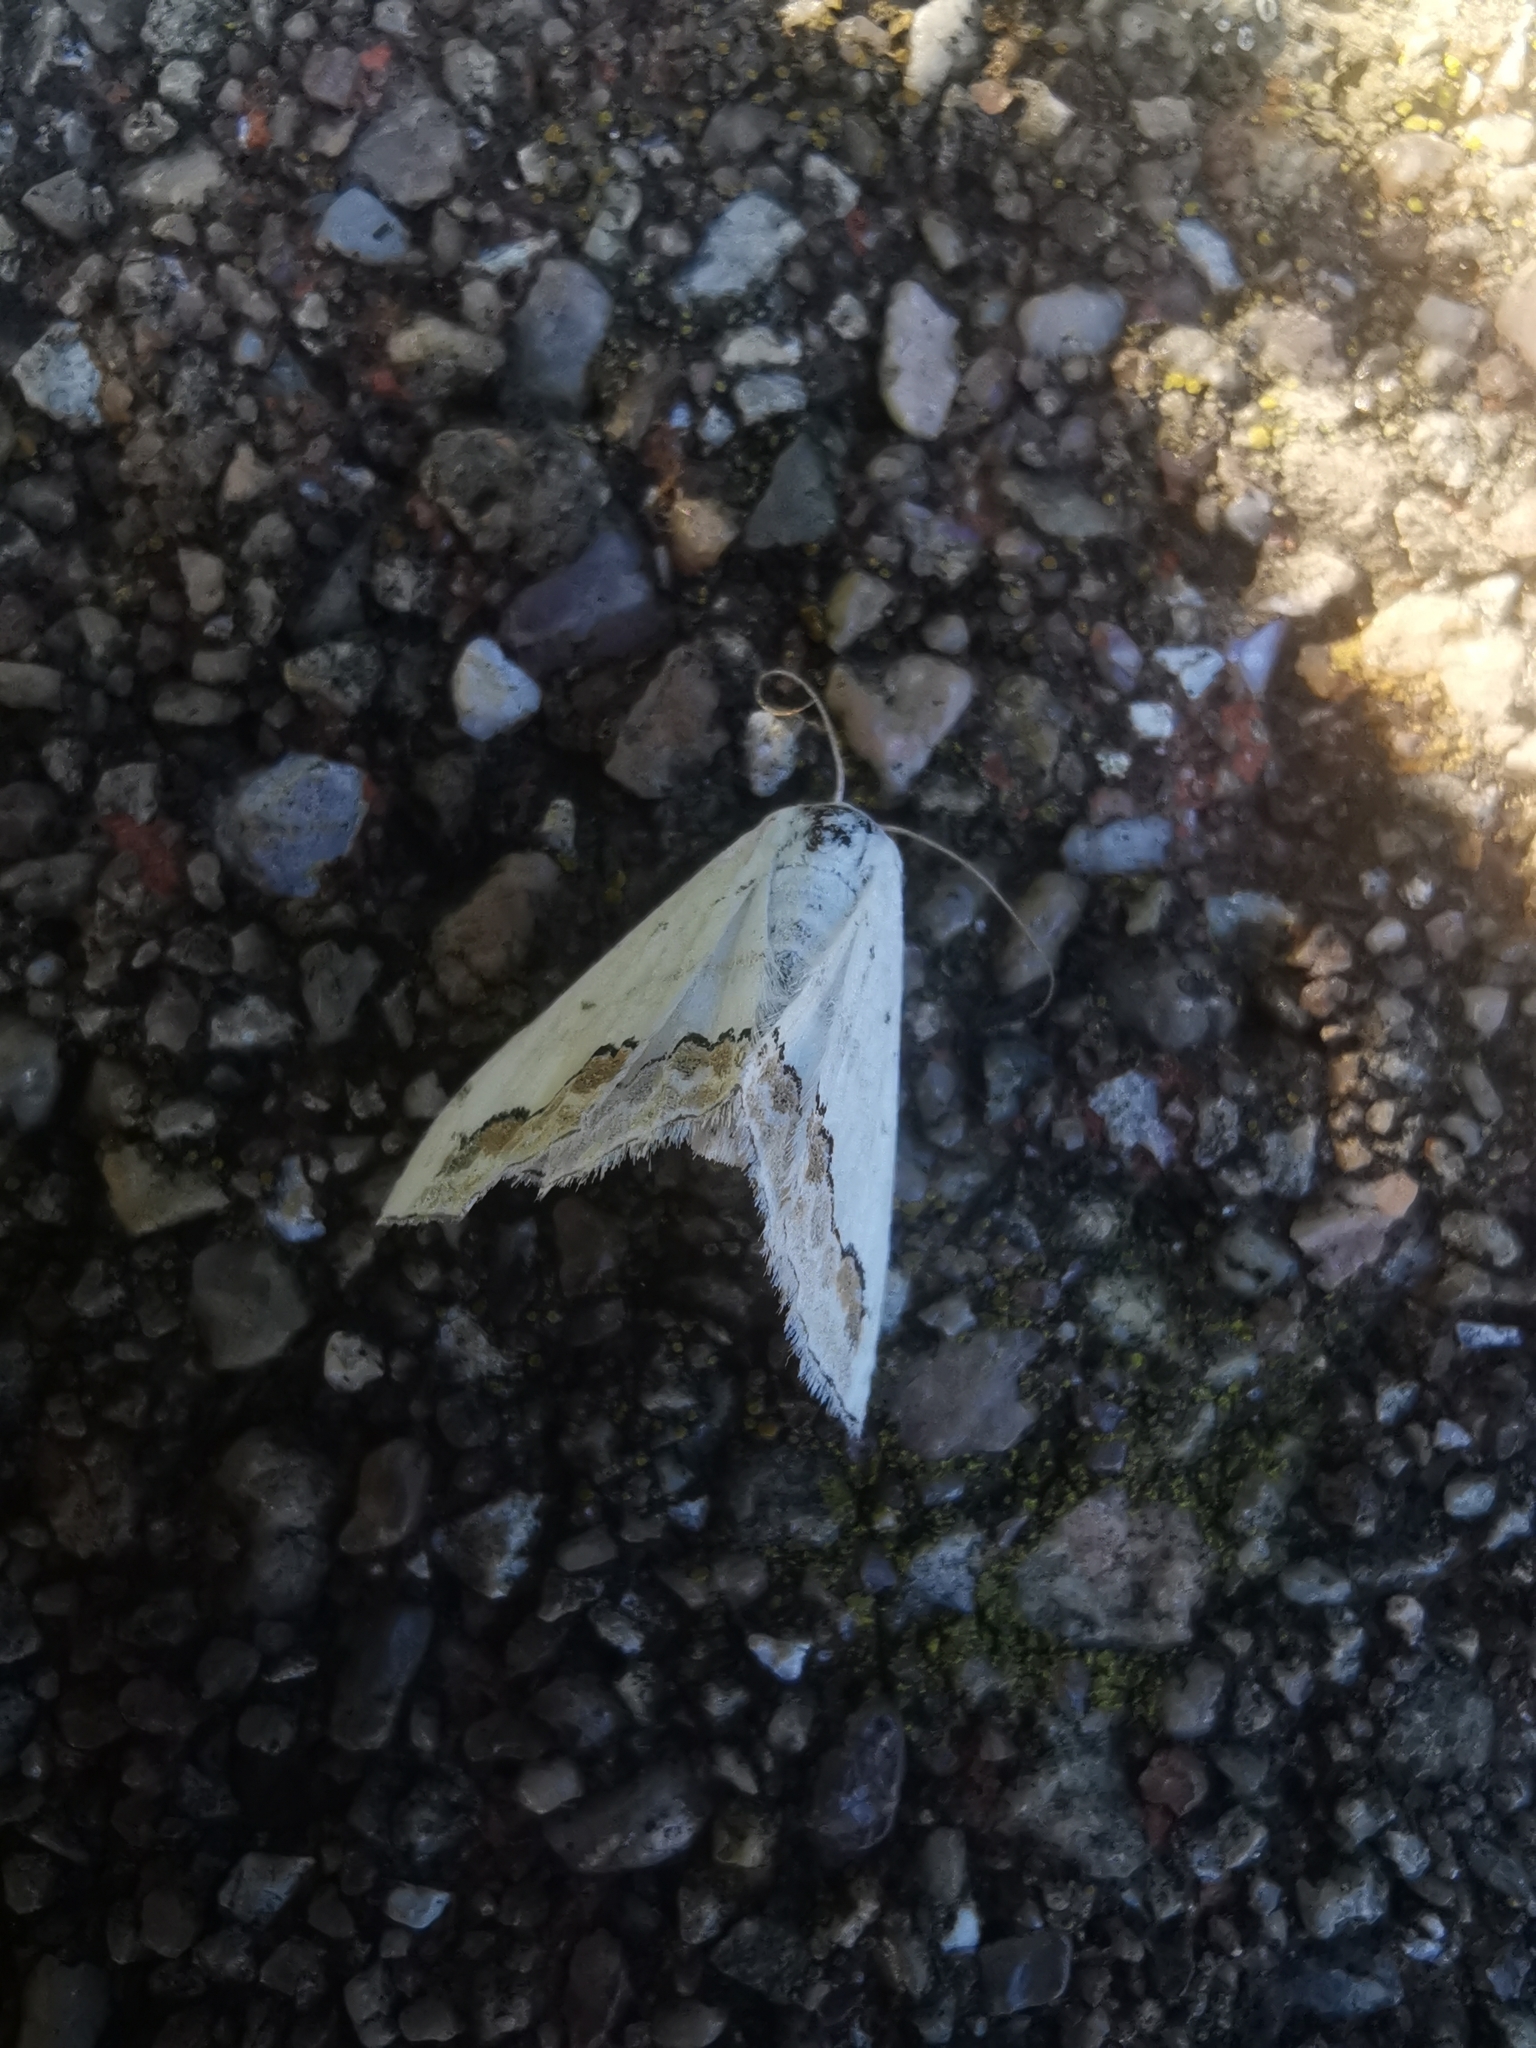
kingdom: Animalia
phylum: Arthropoda
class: Insecta
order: Lepidoptera
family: Geometridae
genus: Scopula
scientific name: Scopula ornata
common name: Lace border
